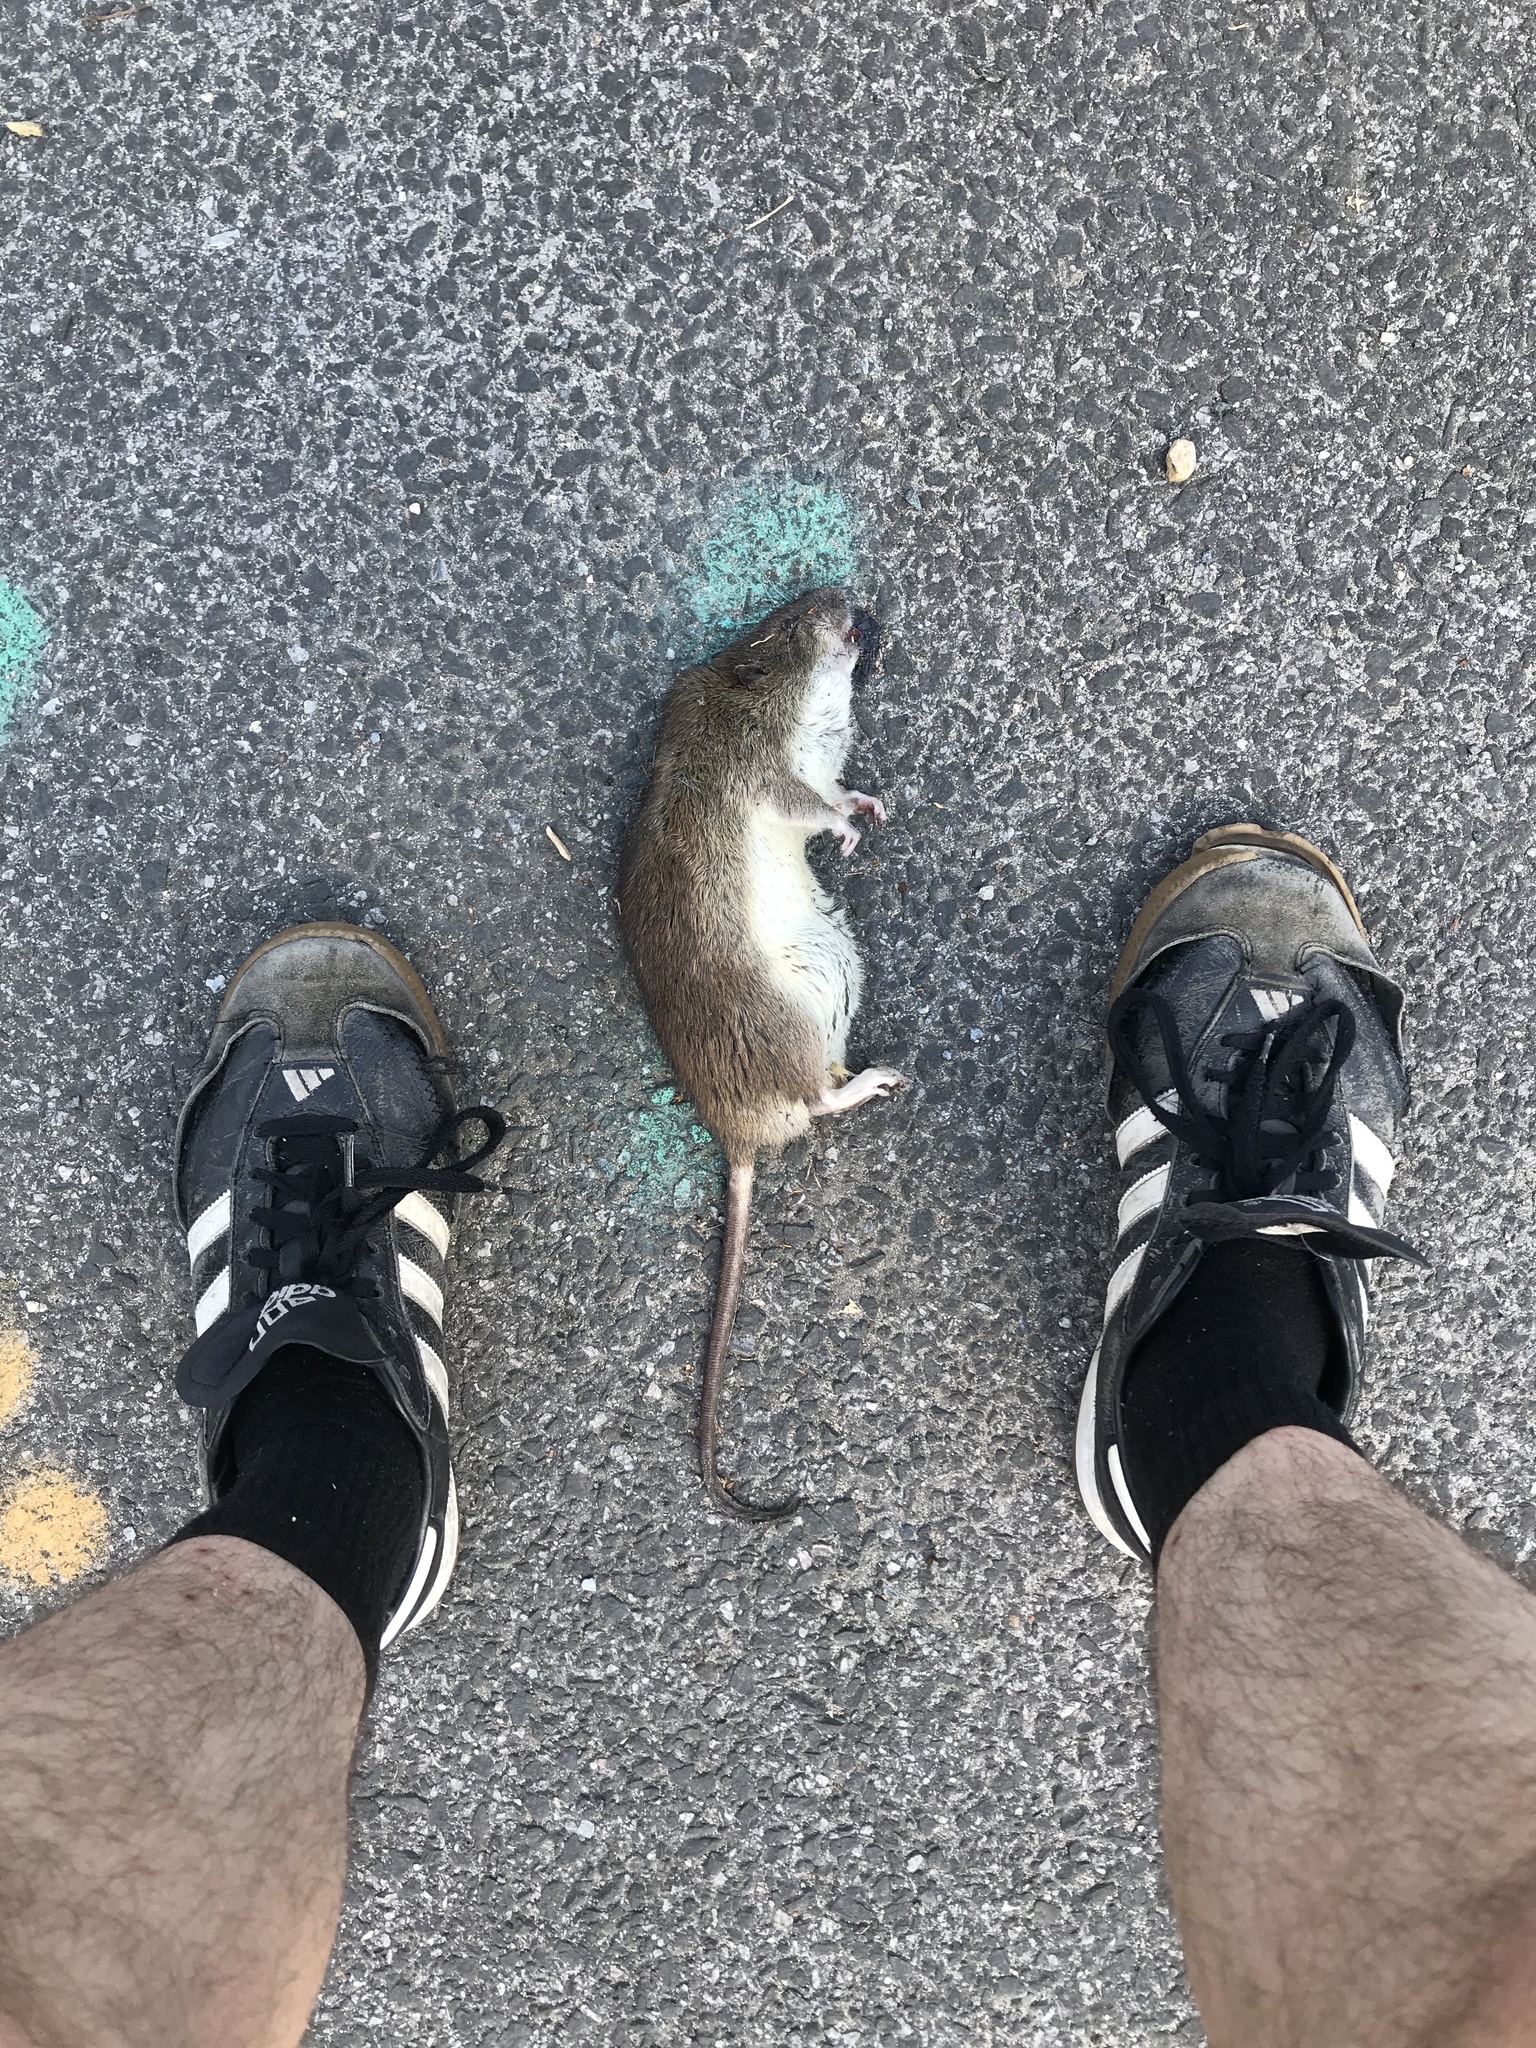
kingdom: Animalia
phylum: Chordata
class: Mammalia
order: Rodentia
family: Muridae
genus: Rattus
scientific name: Rattus norvegicus
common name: Brown rat
